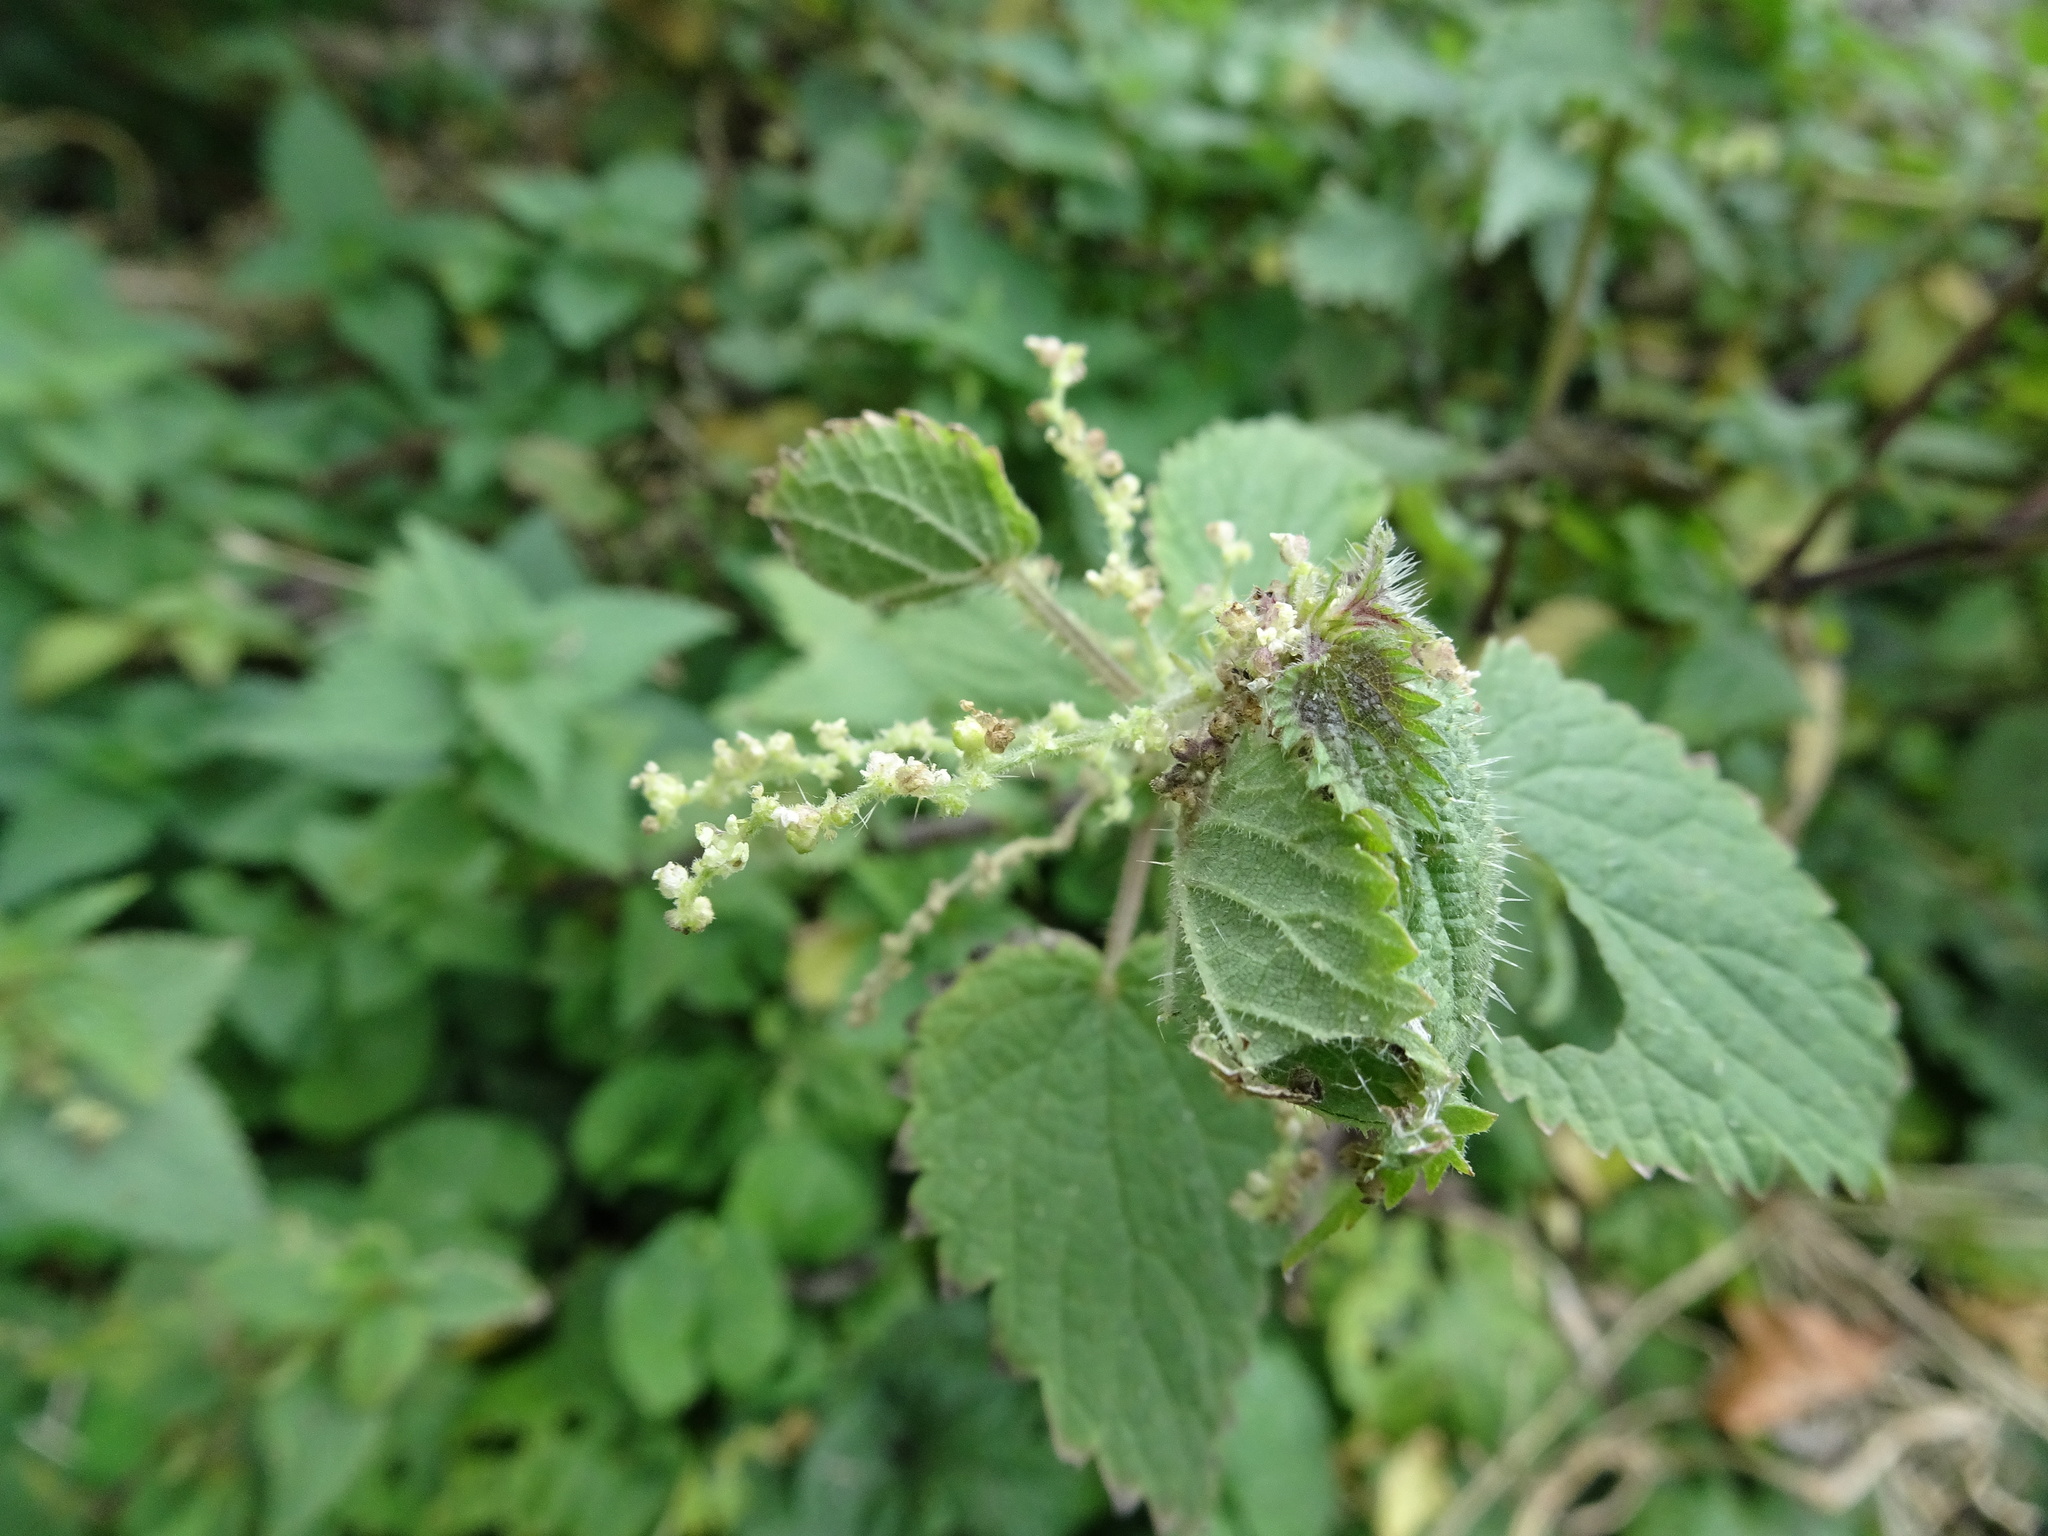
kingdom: Plantae
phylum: Tracheophyta
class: Magnoliopsida
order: Rosales
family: Urticaceae
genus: Urtica
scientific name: Urtica dioica
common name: Common nettle
